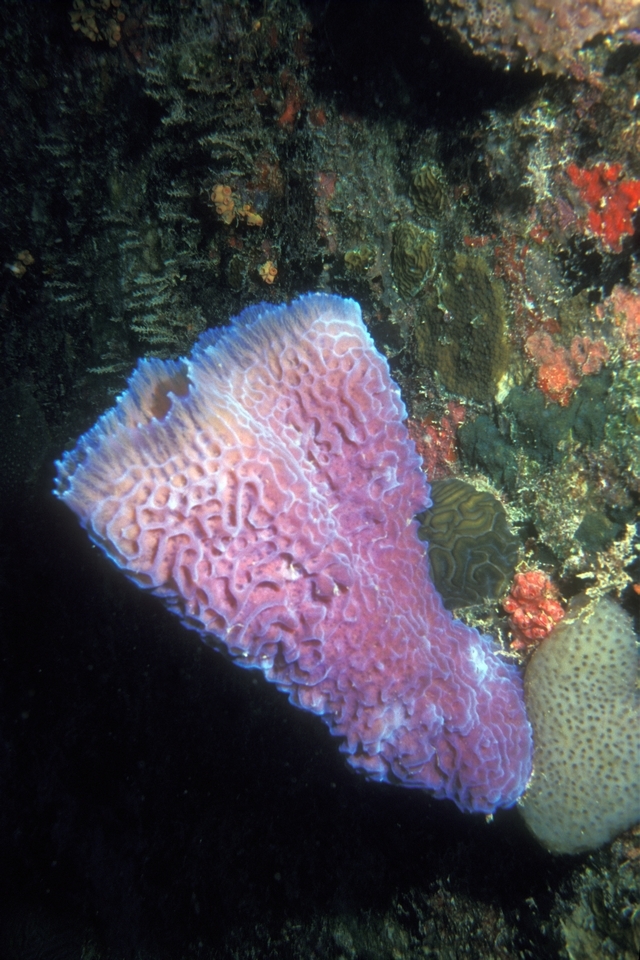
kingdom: Animalia
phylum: Porifera
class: Demospongiae
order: Haplosclerida
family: Callyspongiidae
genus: Callyspongia
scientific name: Callyspongia plicifera
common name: Azure vase sponge
